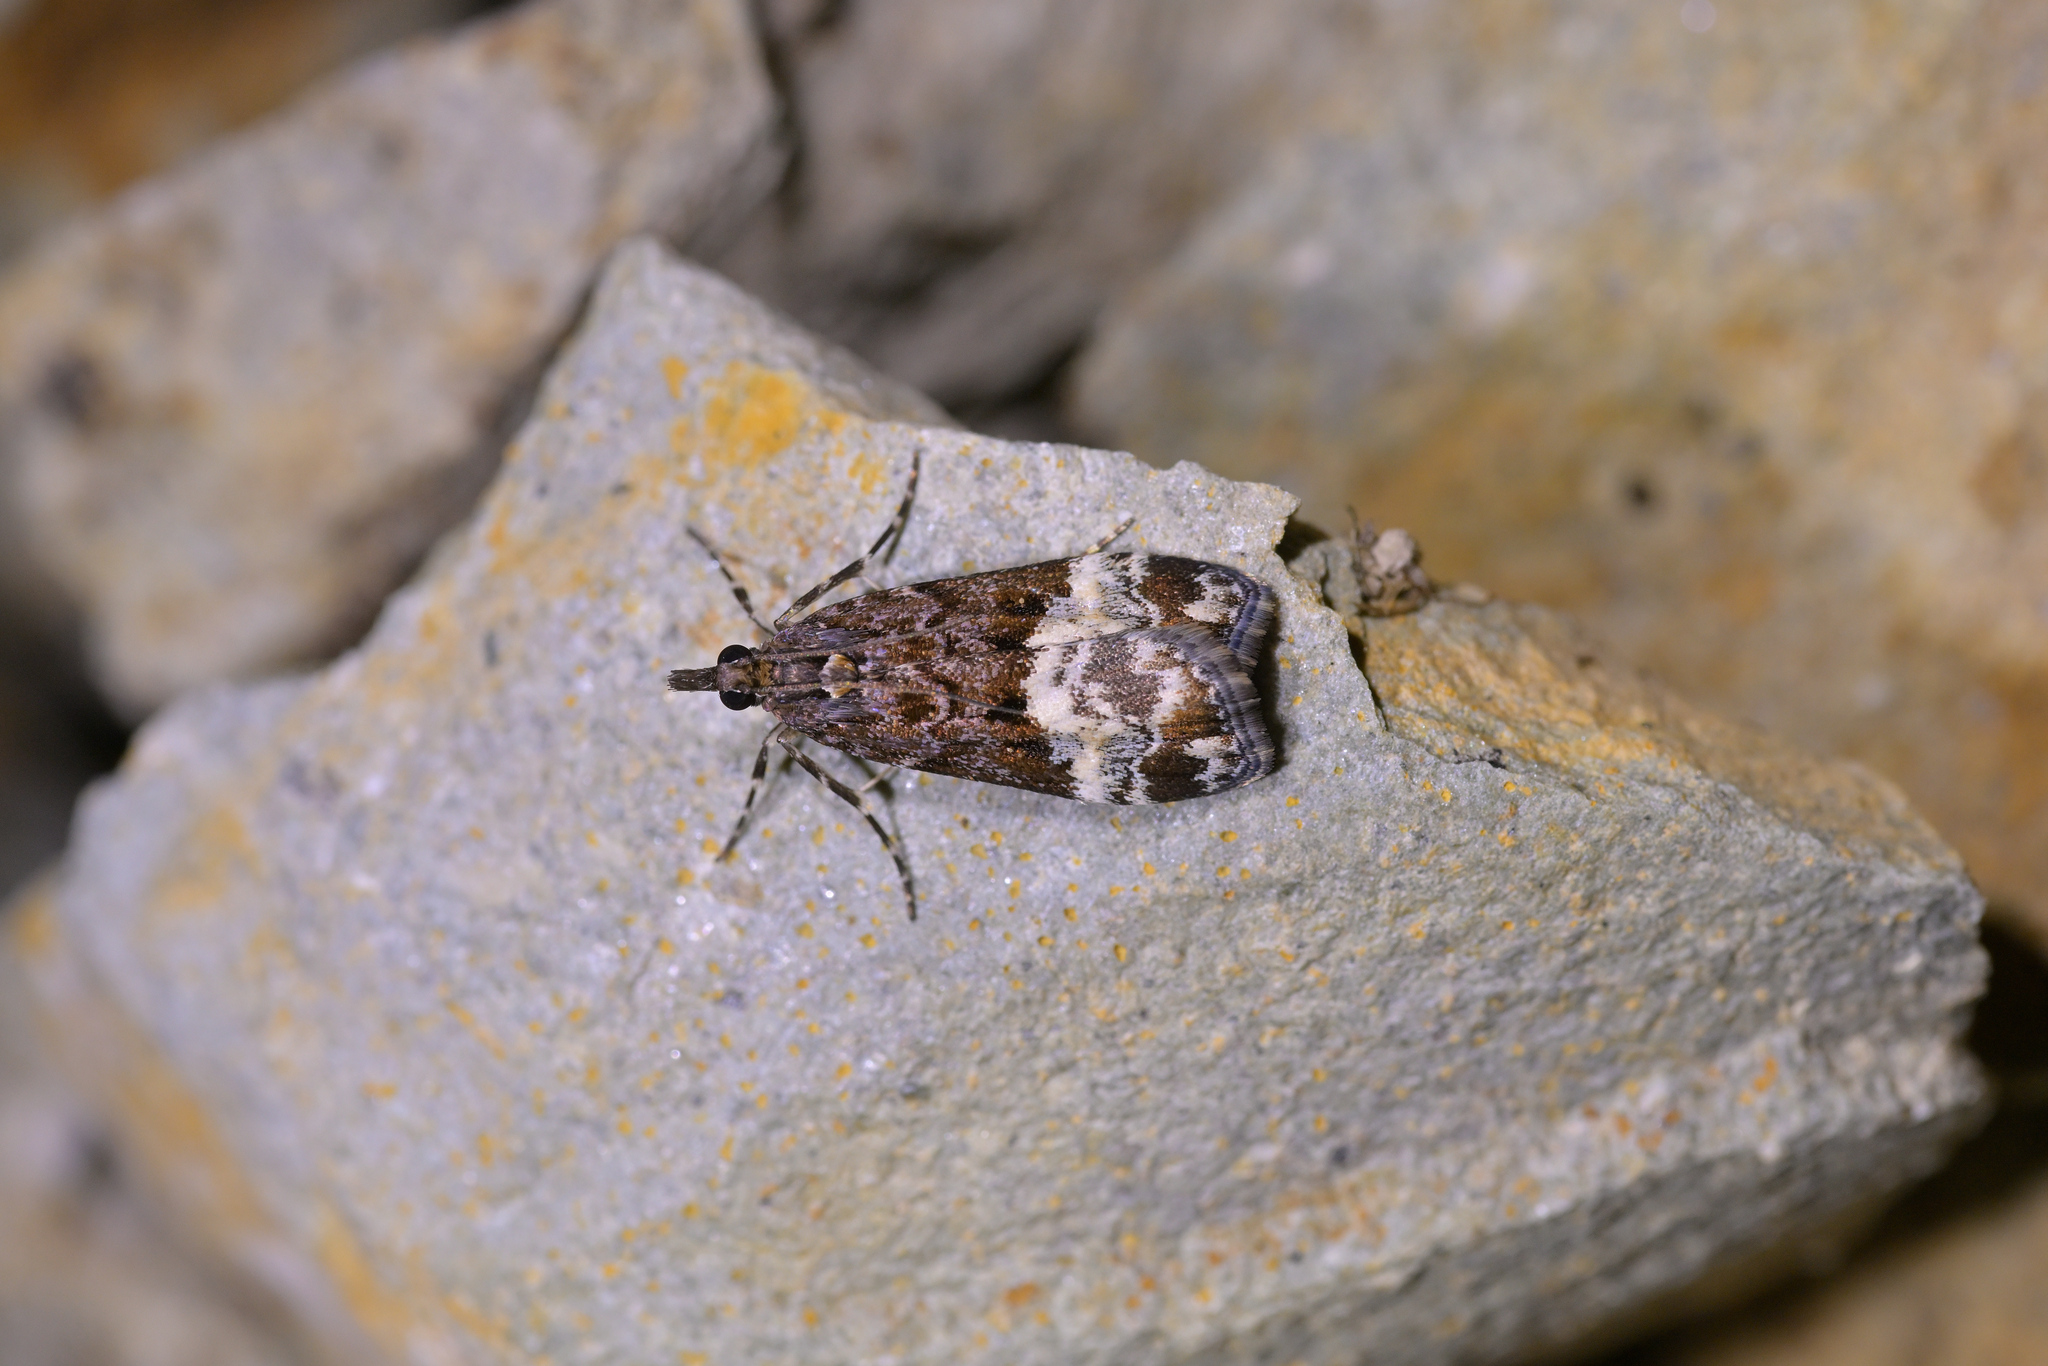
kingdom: Animalia
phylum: Arthropoda
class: Insecta
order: Lepidoptera
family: Crambidae
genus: Scoparia
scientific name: Scoparia minusculalis
